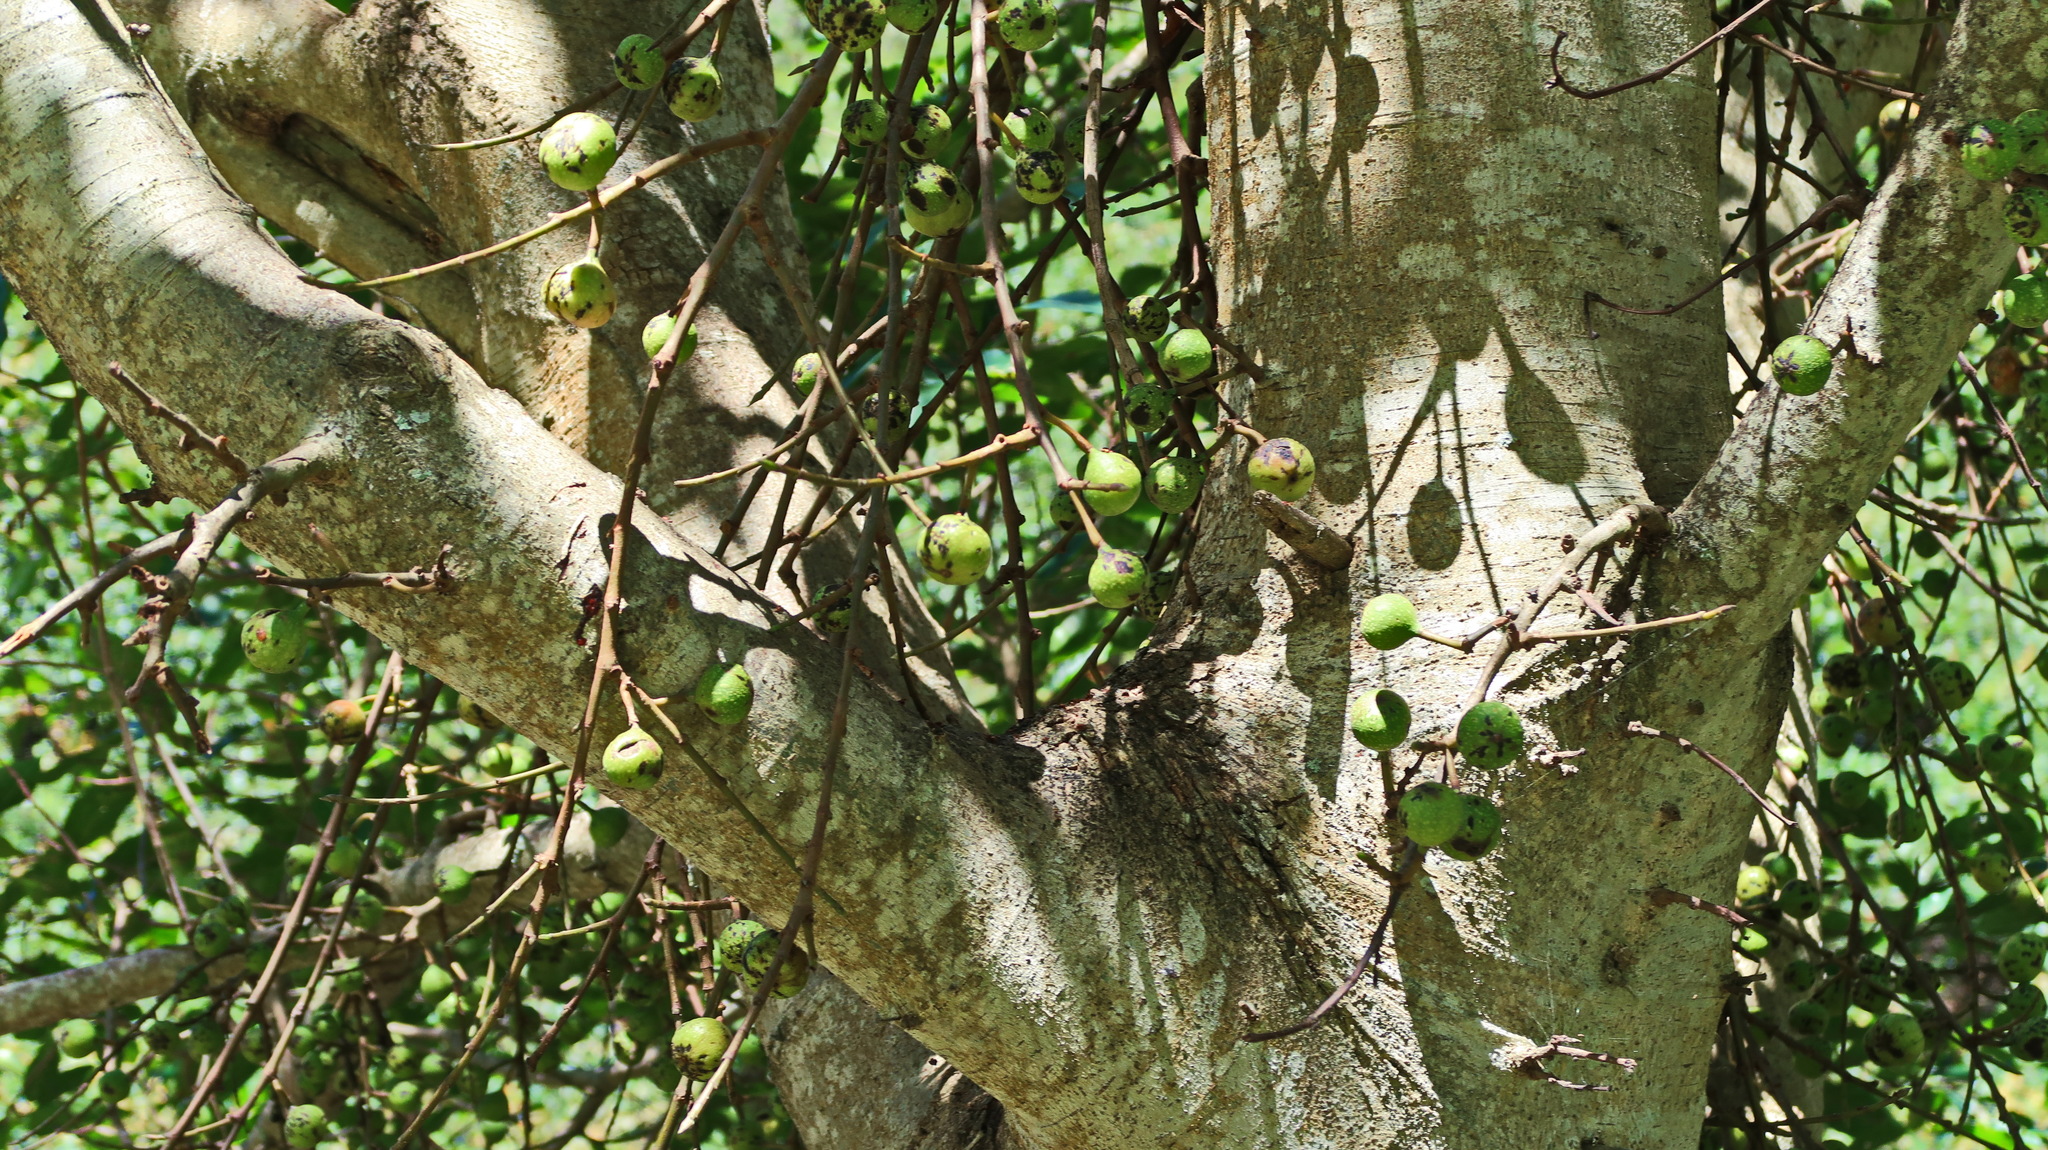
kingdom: Plantae
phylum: Tracheophyta
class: Magnoliopsida
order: Rosales
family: Moraceae
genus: Ficus
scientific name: Ficus sur
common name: Cape fig
